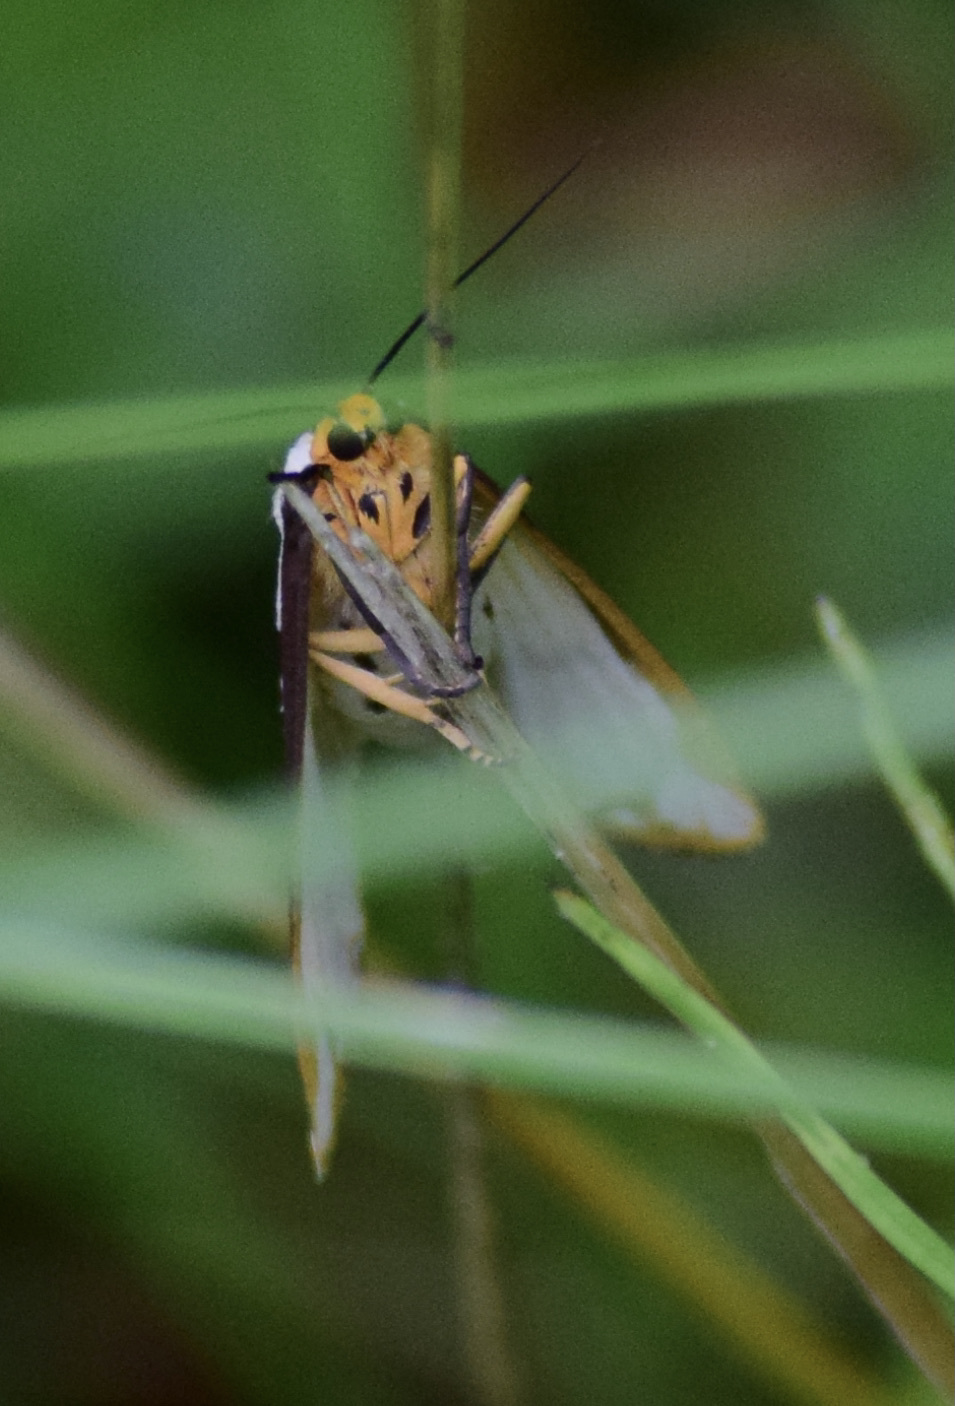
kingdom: Animalia
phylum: Arthropoda
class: Insecta
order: Lepidoptera
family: Erebidae
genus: Haploa
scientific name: Haploa confusa
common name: Confused haploa moth
